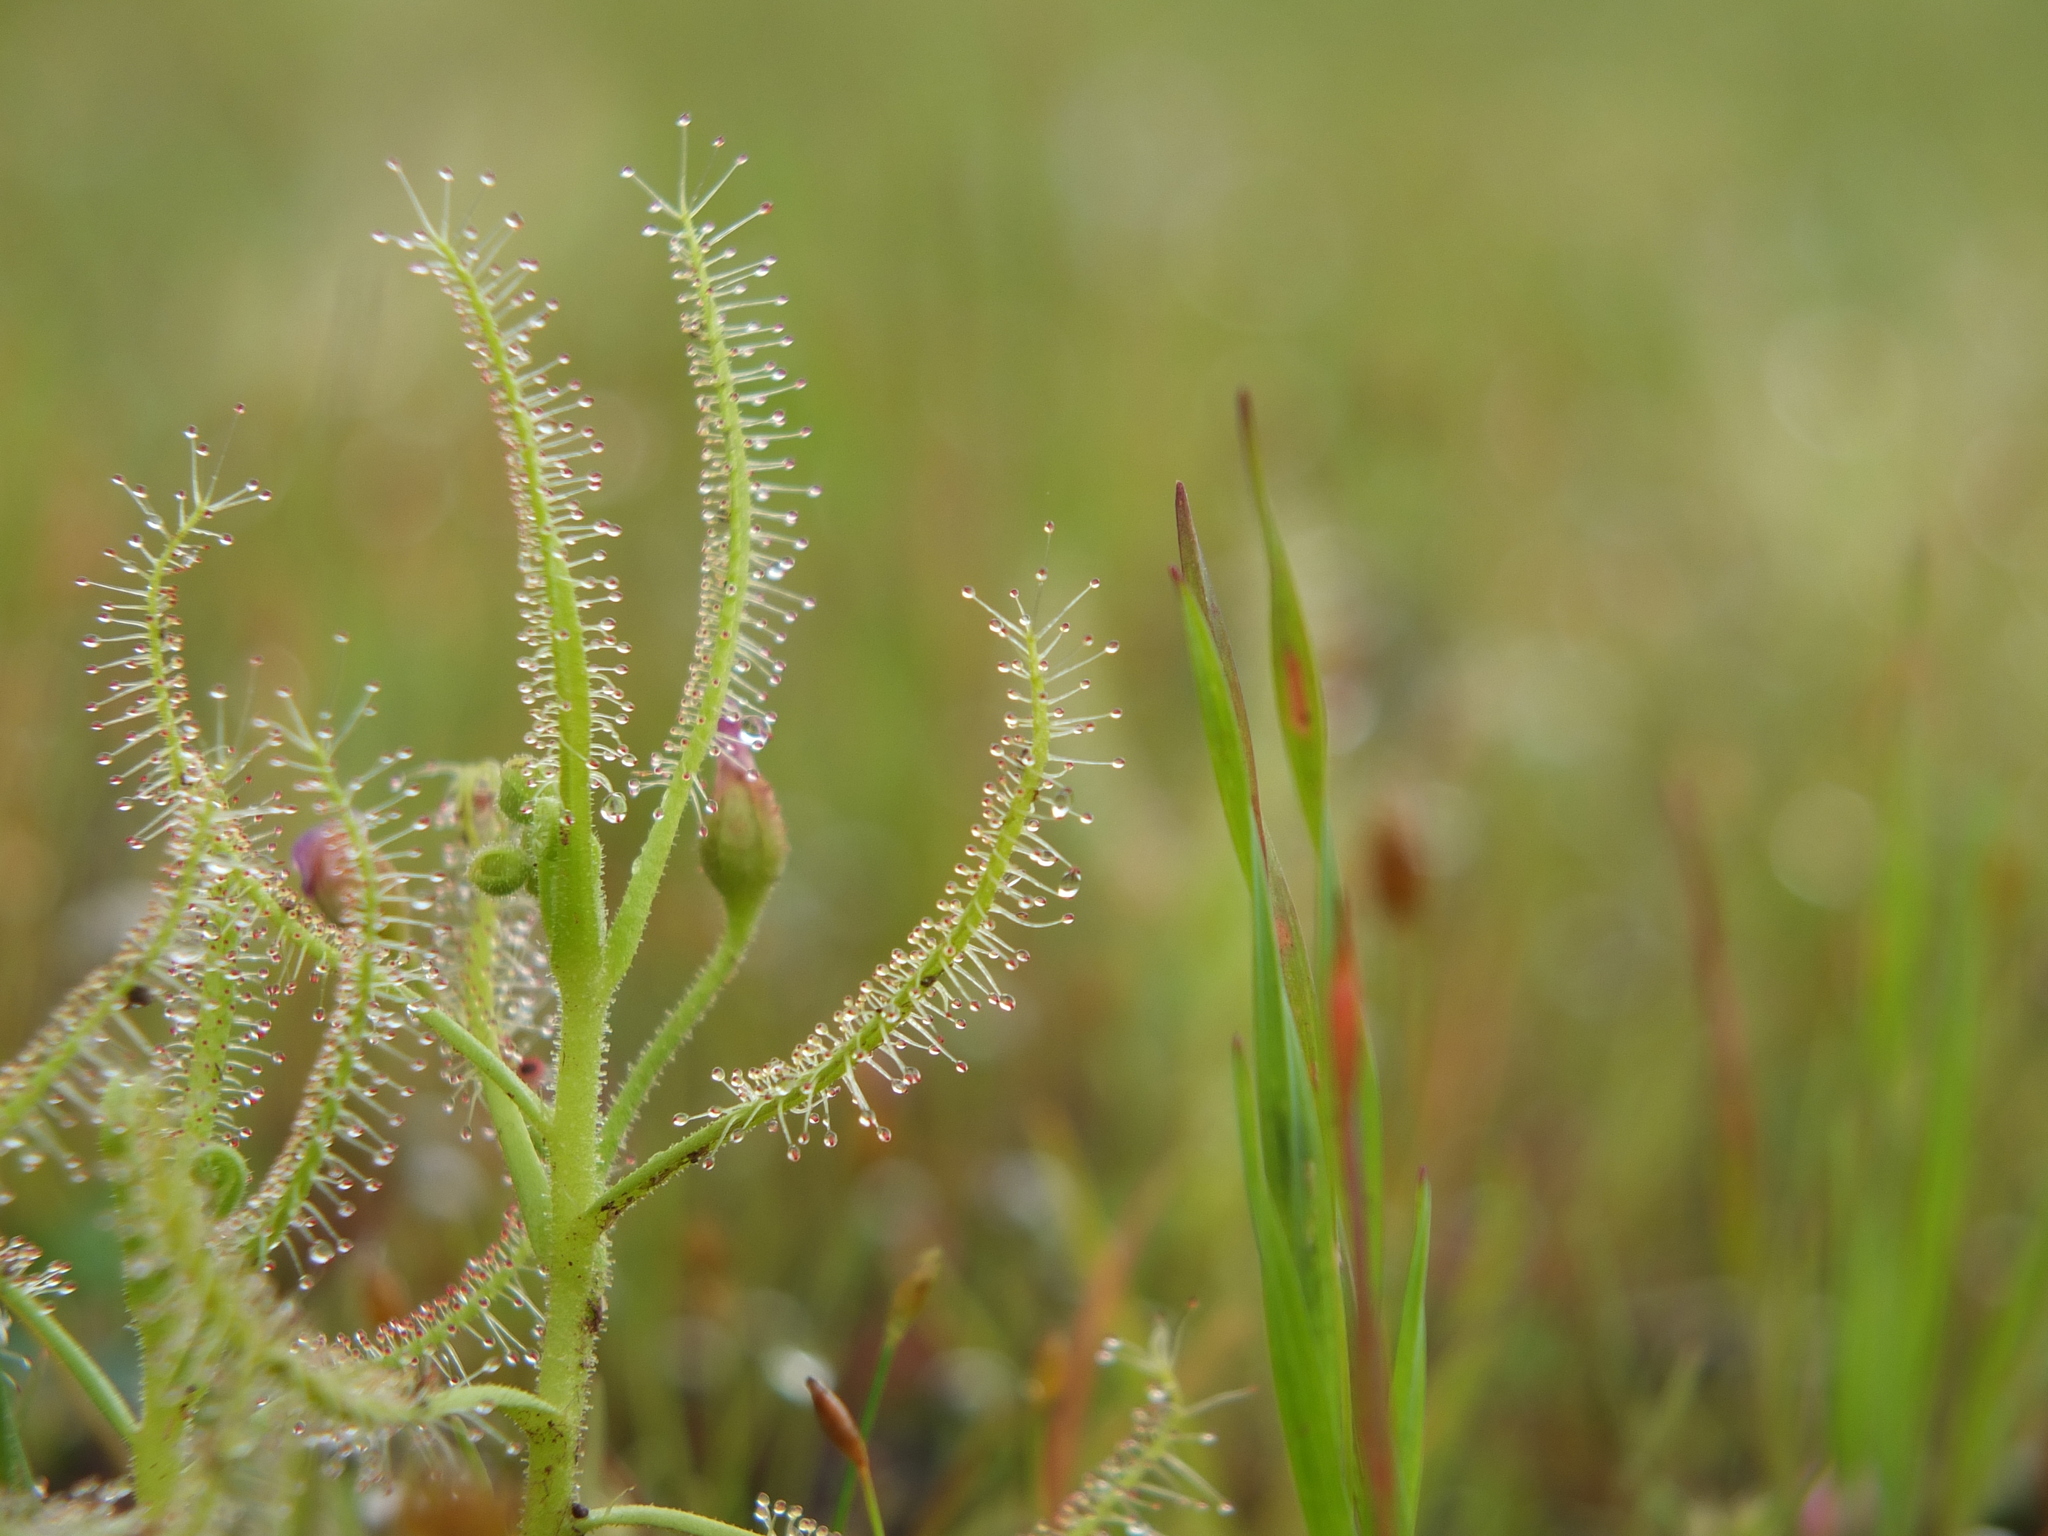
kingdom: Plantae
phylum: Tracheophyta
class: Magnoliopsida
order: Caryophyllales
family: Droseraceae
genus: Drosera
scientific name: Drosera indica
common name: Indian sundew
